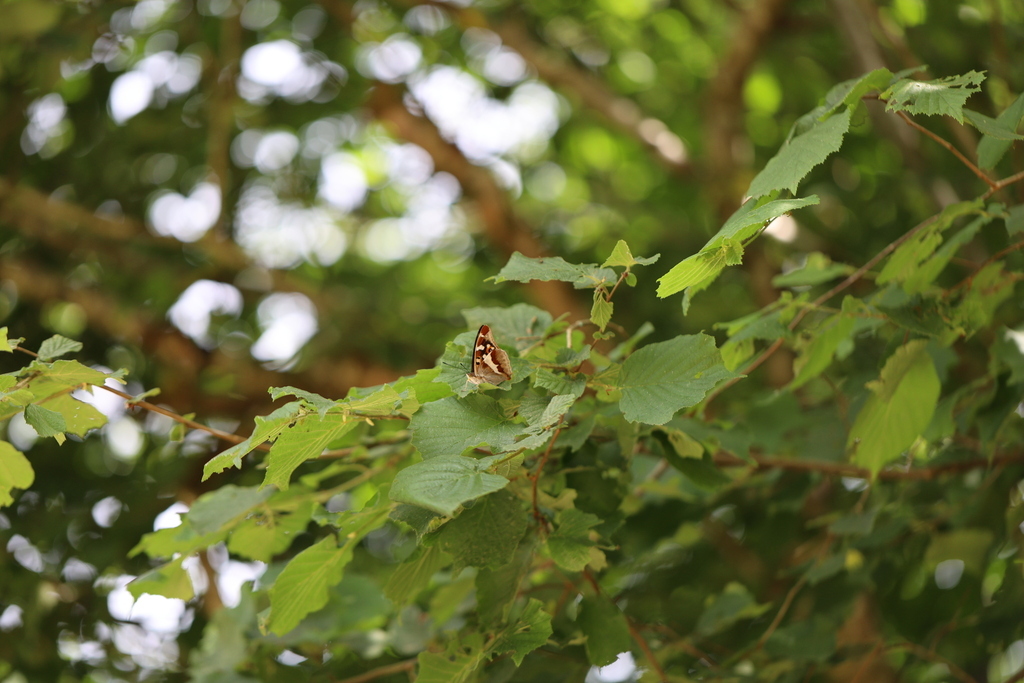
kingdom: Plantae
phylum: Tracheophyta
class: Magnoliopsida
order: Fagales
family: Betulaceae
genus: Corylus
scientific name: Corylus avellana
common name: European hazel
